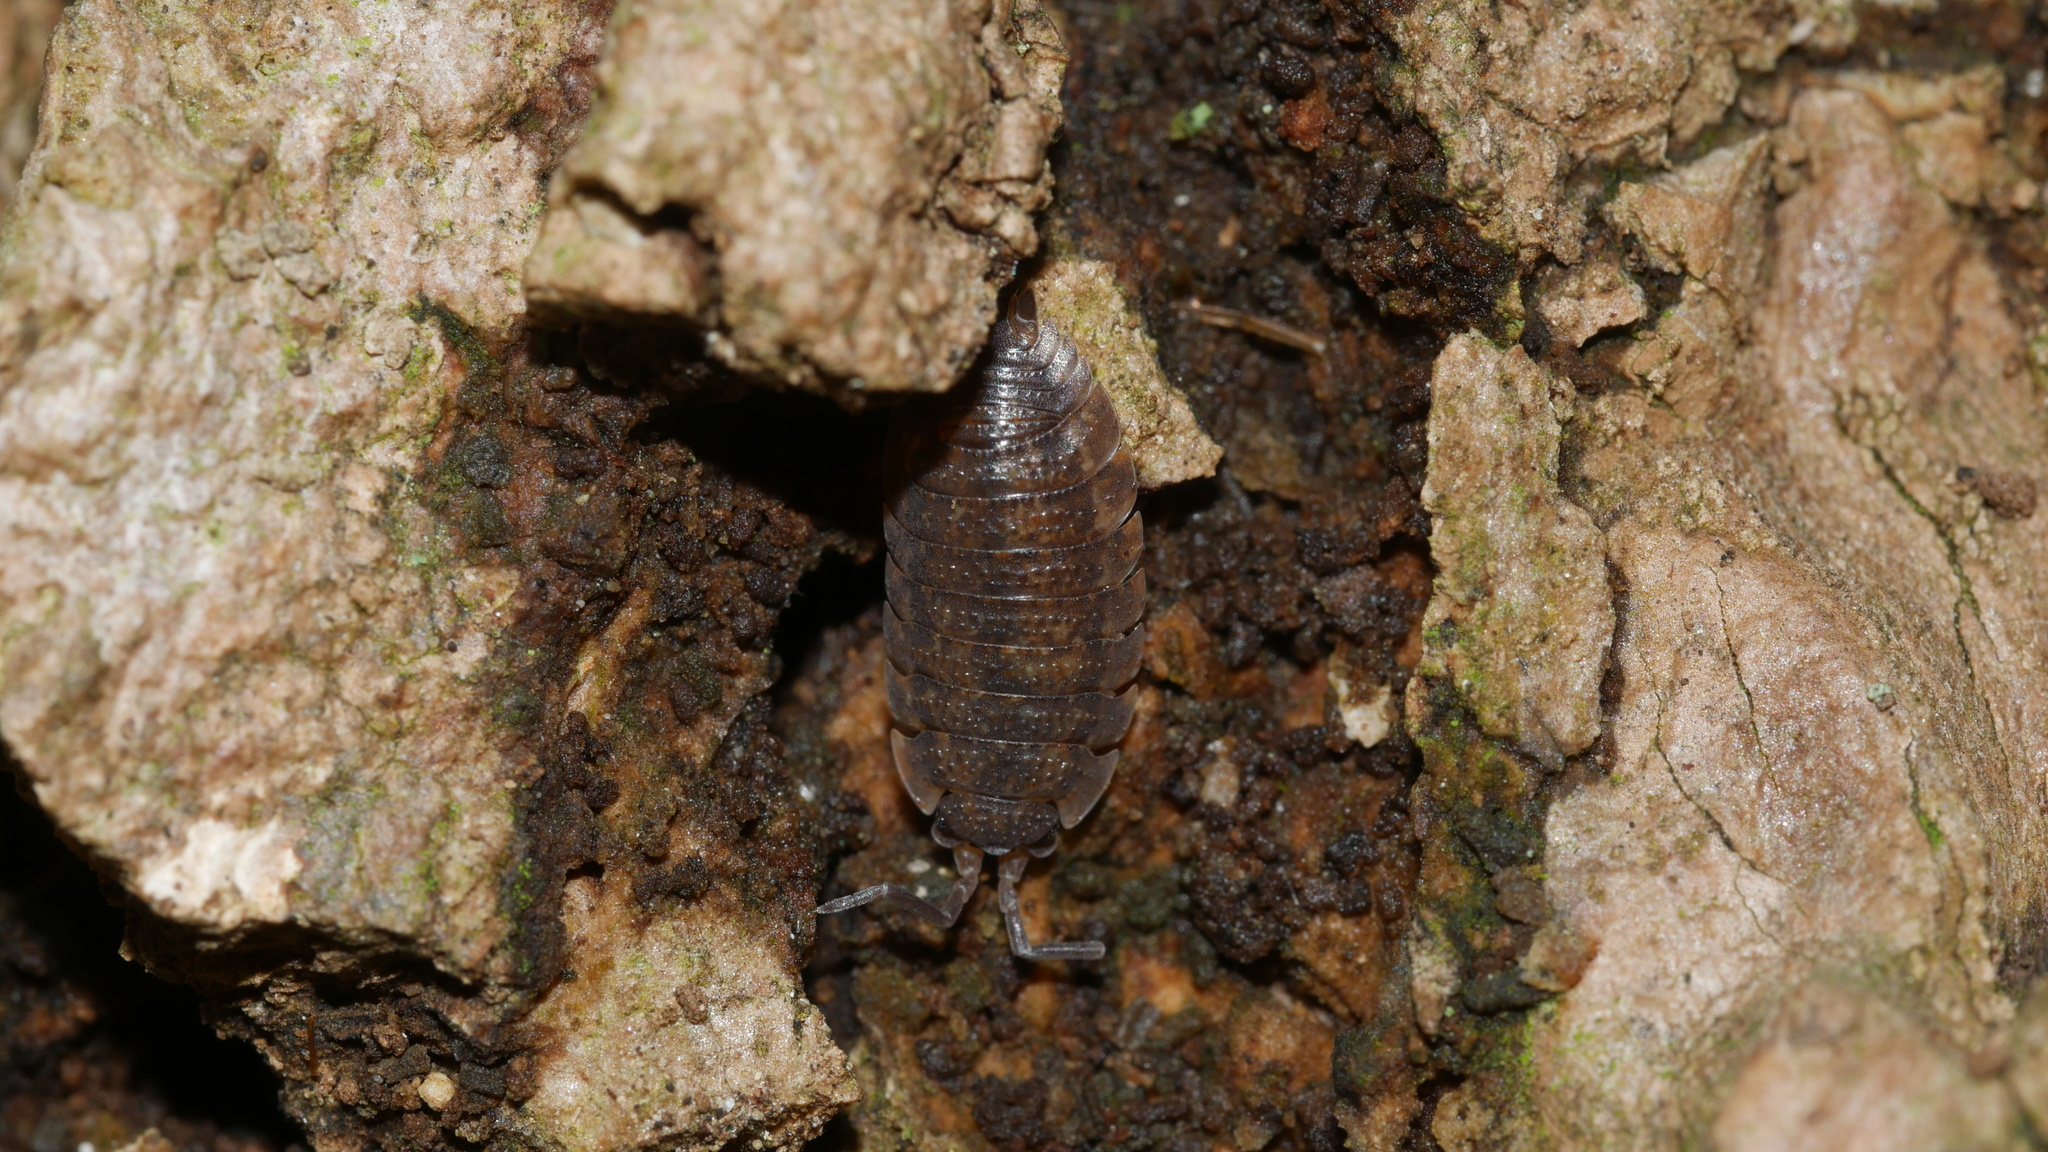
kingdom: Animalia
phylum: Arthropoda
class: Malacostraca
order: Isopoda
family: Porcellionidae
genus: Porcellio
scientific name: Porcellio scaber
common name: Common rough woodlouse
